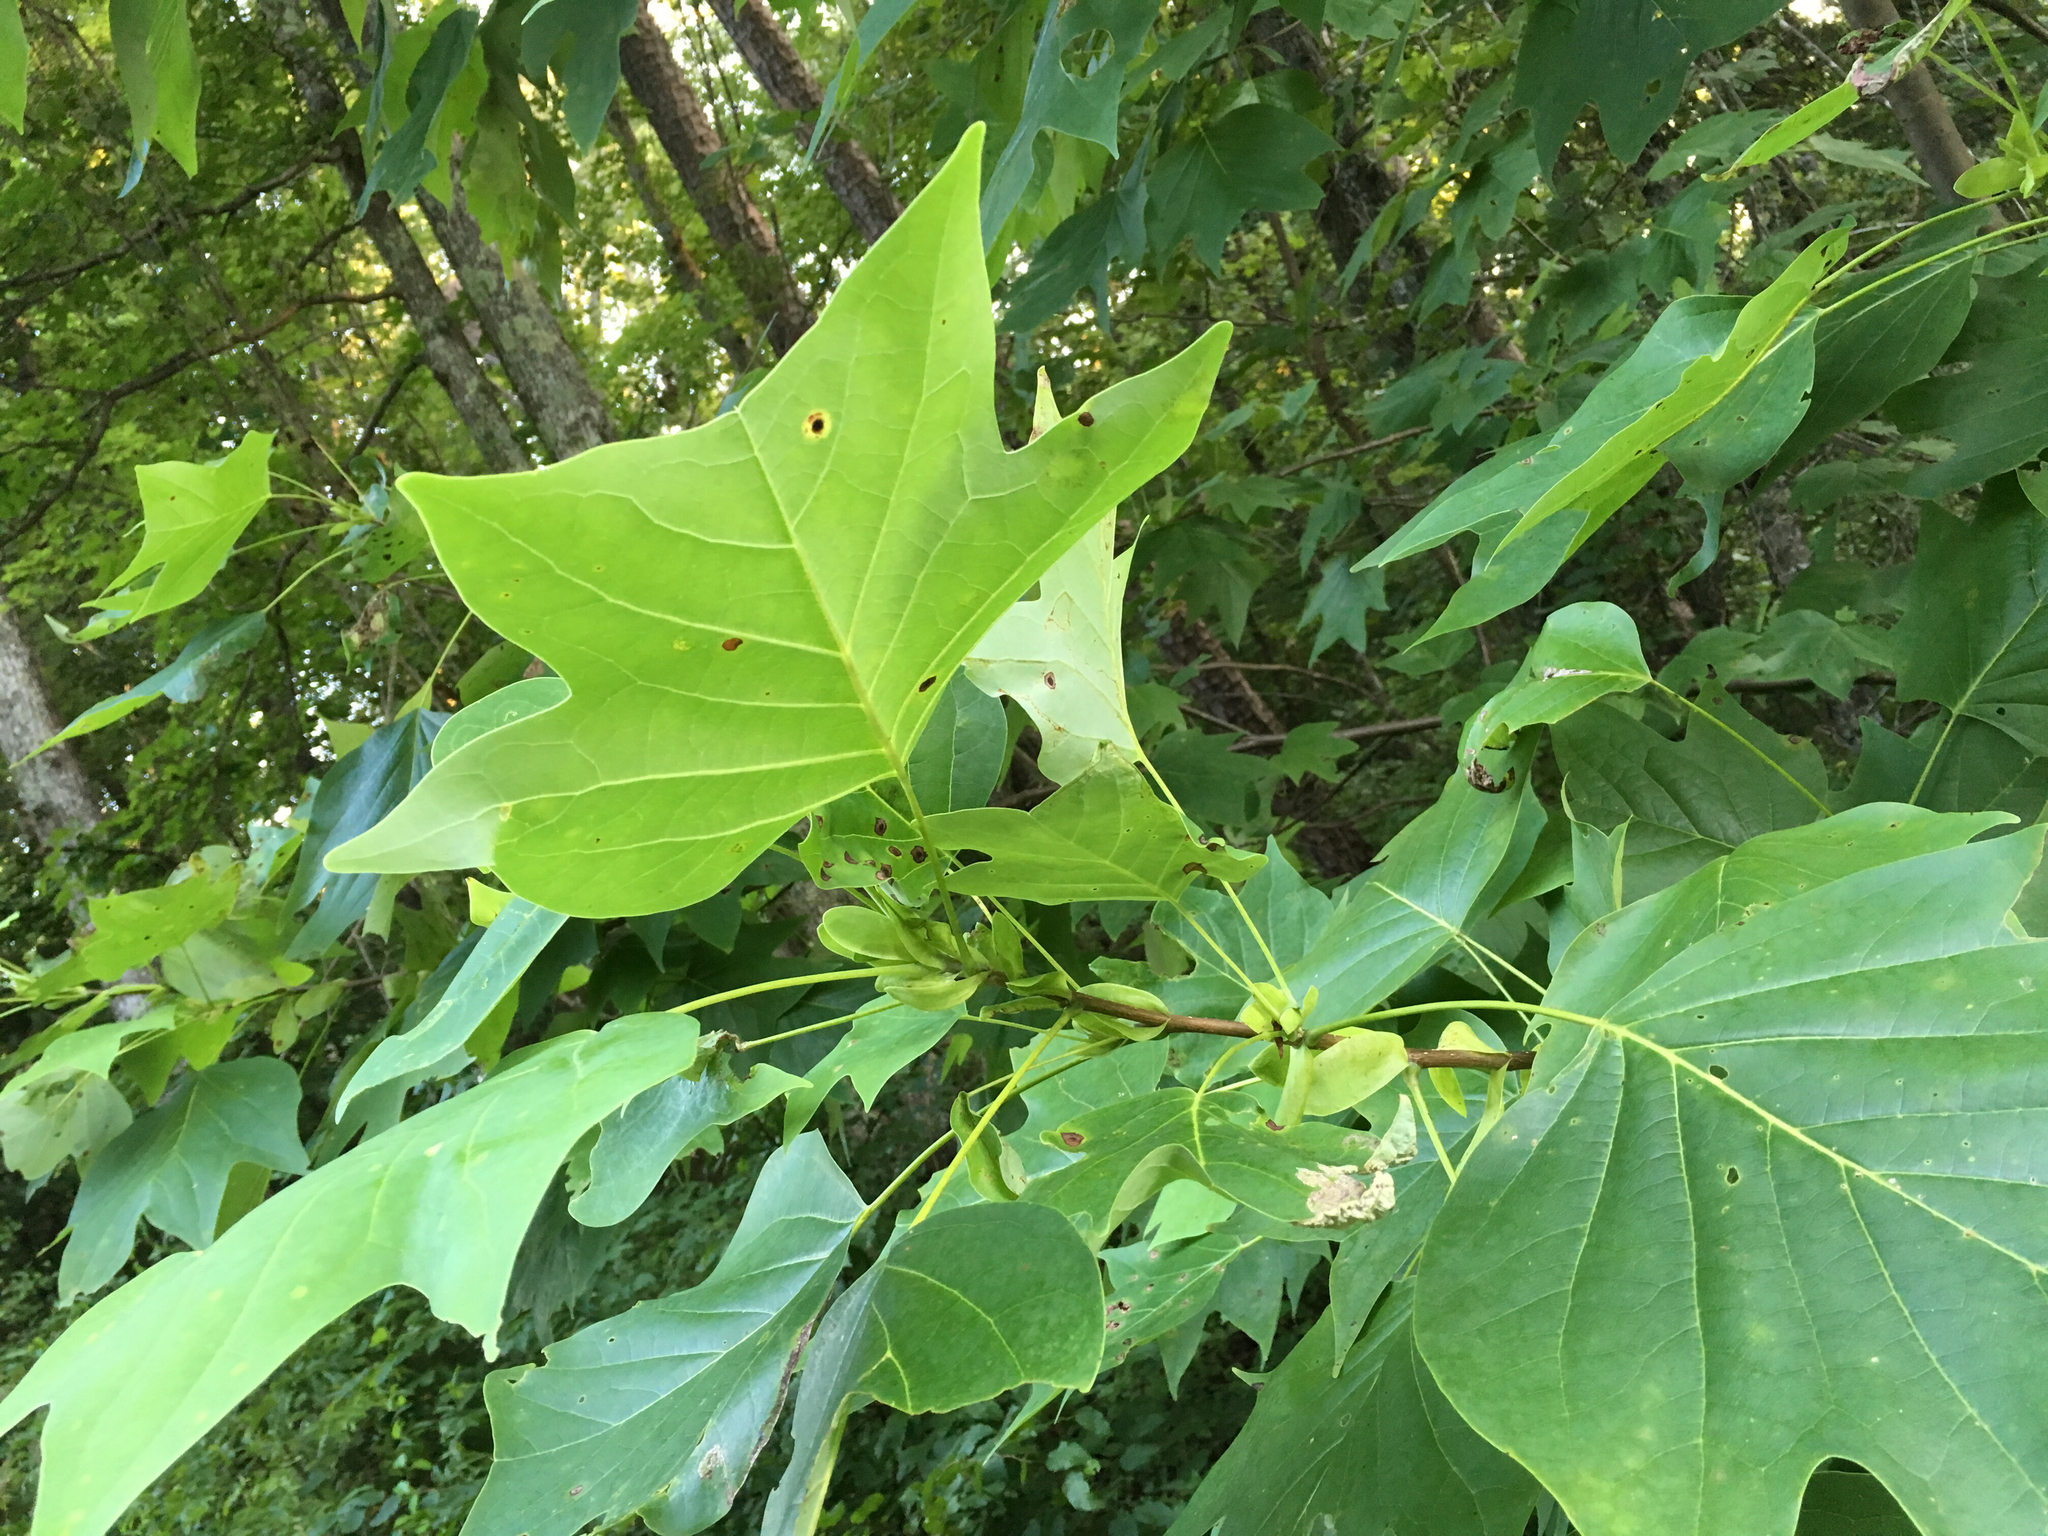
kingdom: Plantae
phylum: Tracheophyta
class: Magnoliopsida
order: Magnoliales
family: Magnoliaceae
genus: Liriodendron
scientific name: Liriodendron tulipifera
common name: Tulip tree
